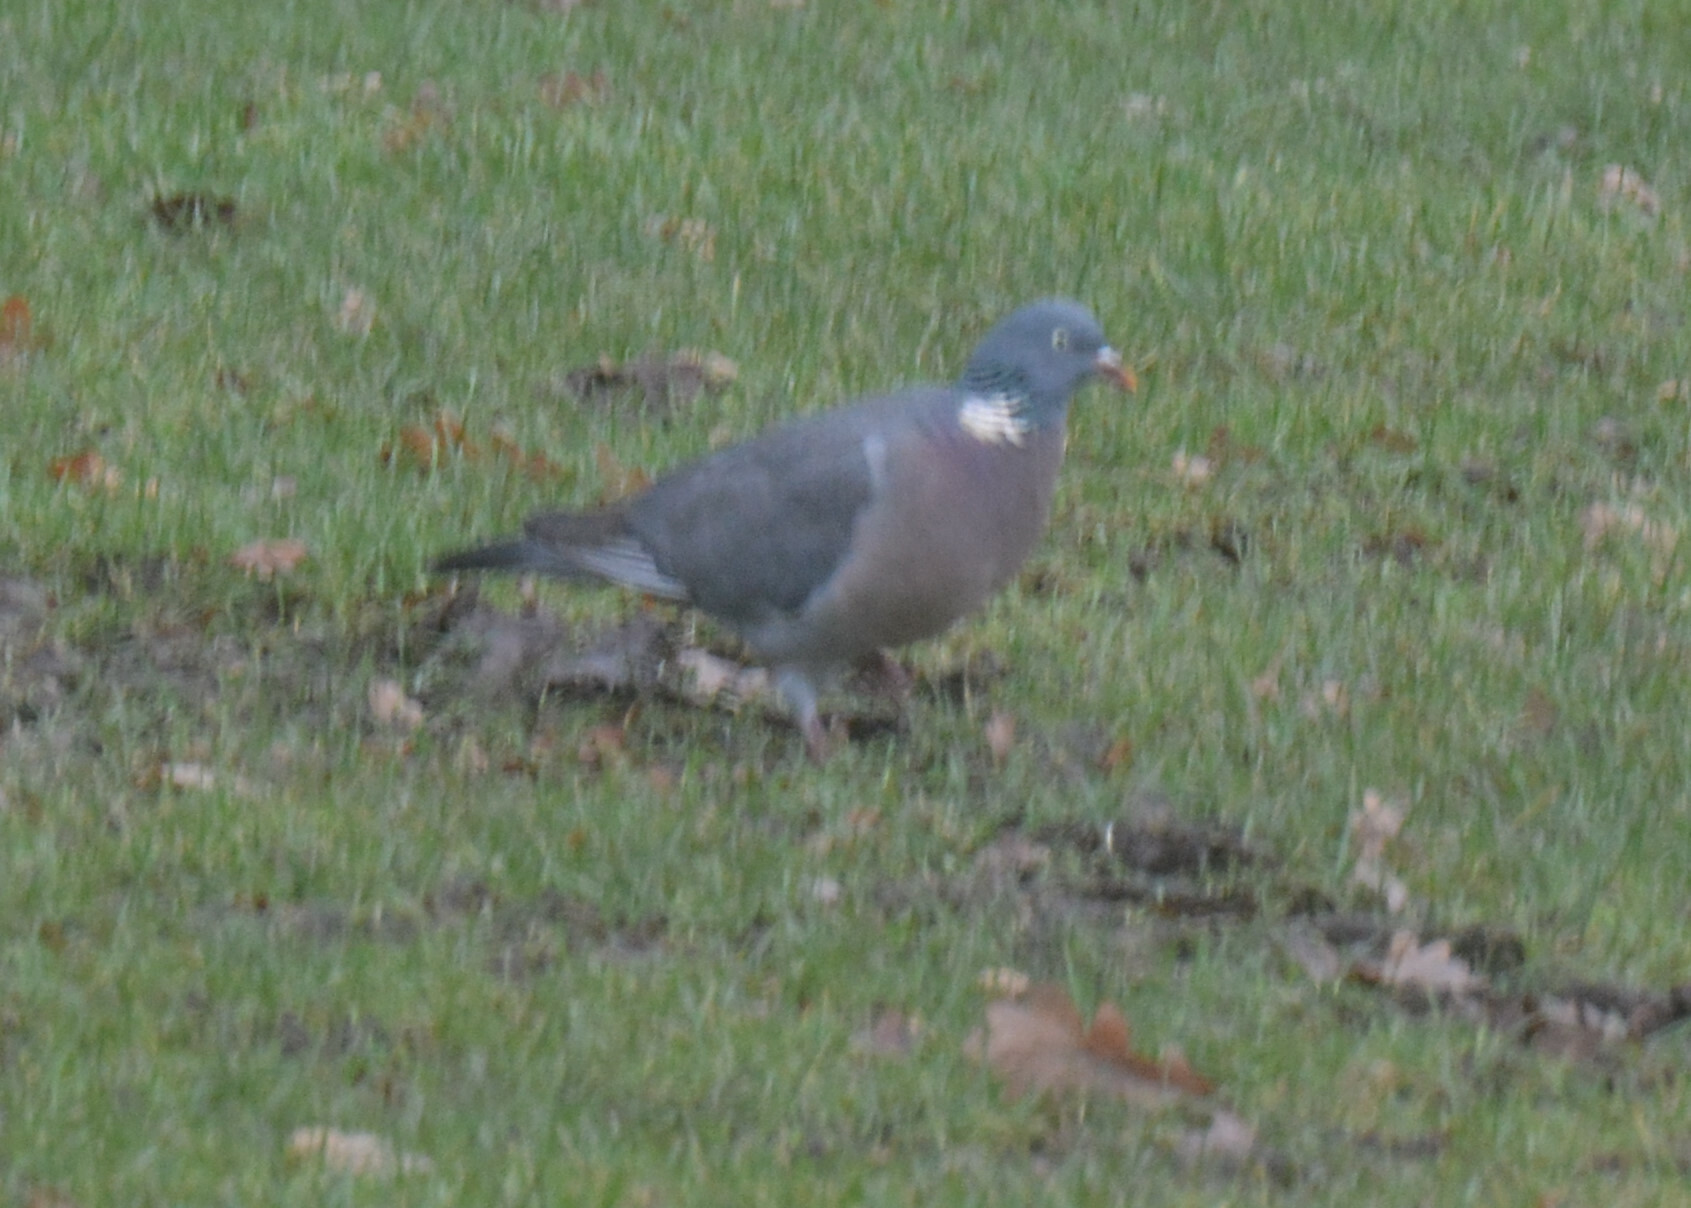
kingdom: Animalia
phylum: Chordata
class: Aves
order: Columbiformes
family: Columbidae
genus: Columba
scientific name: Columba palumbus
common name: Common wood pigeon
